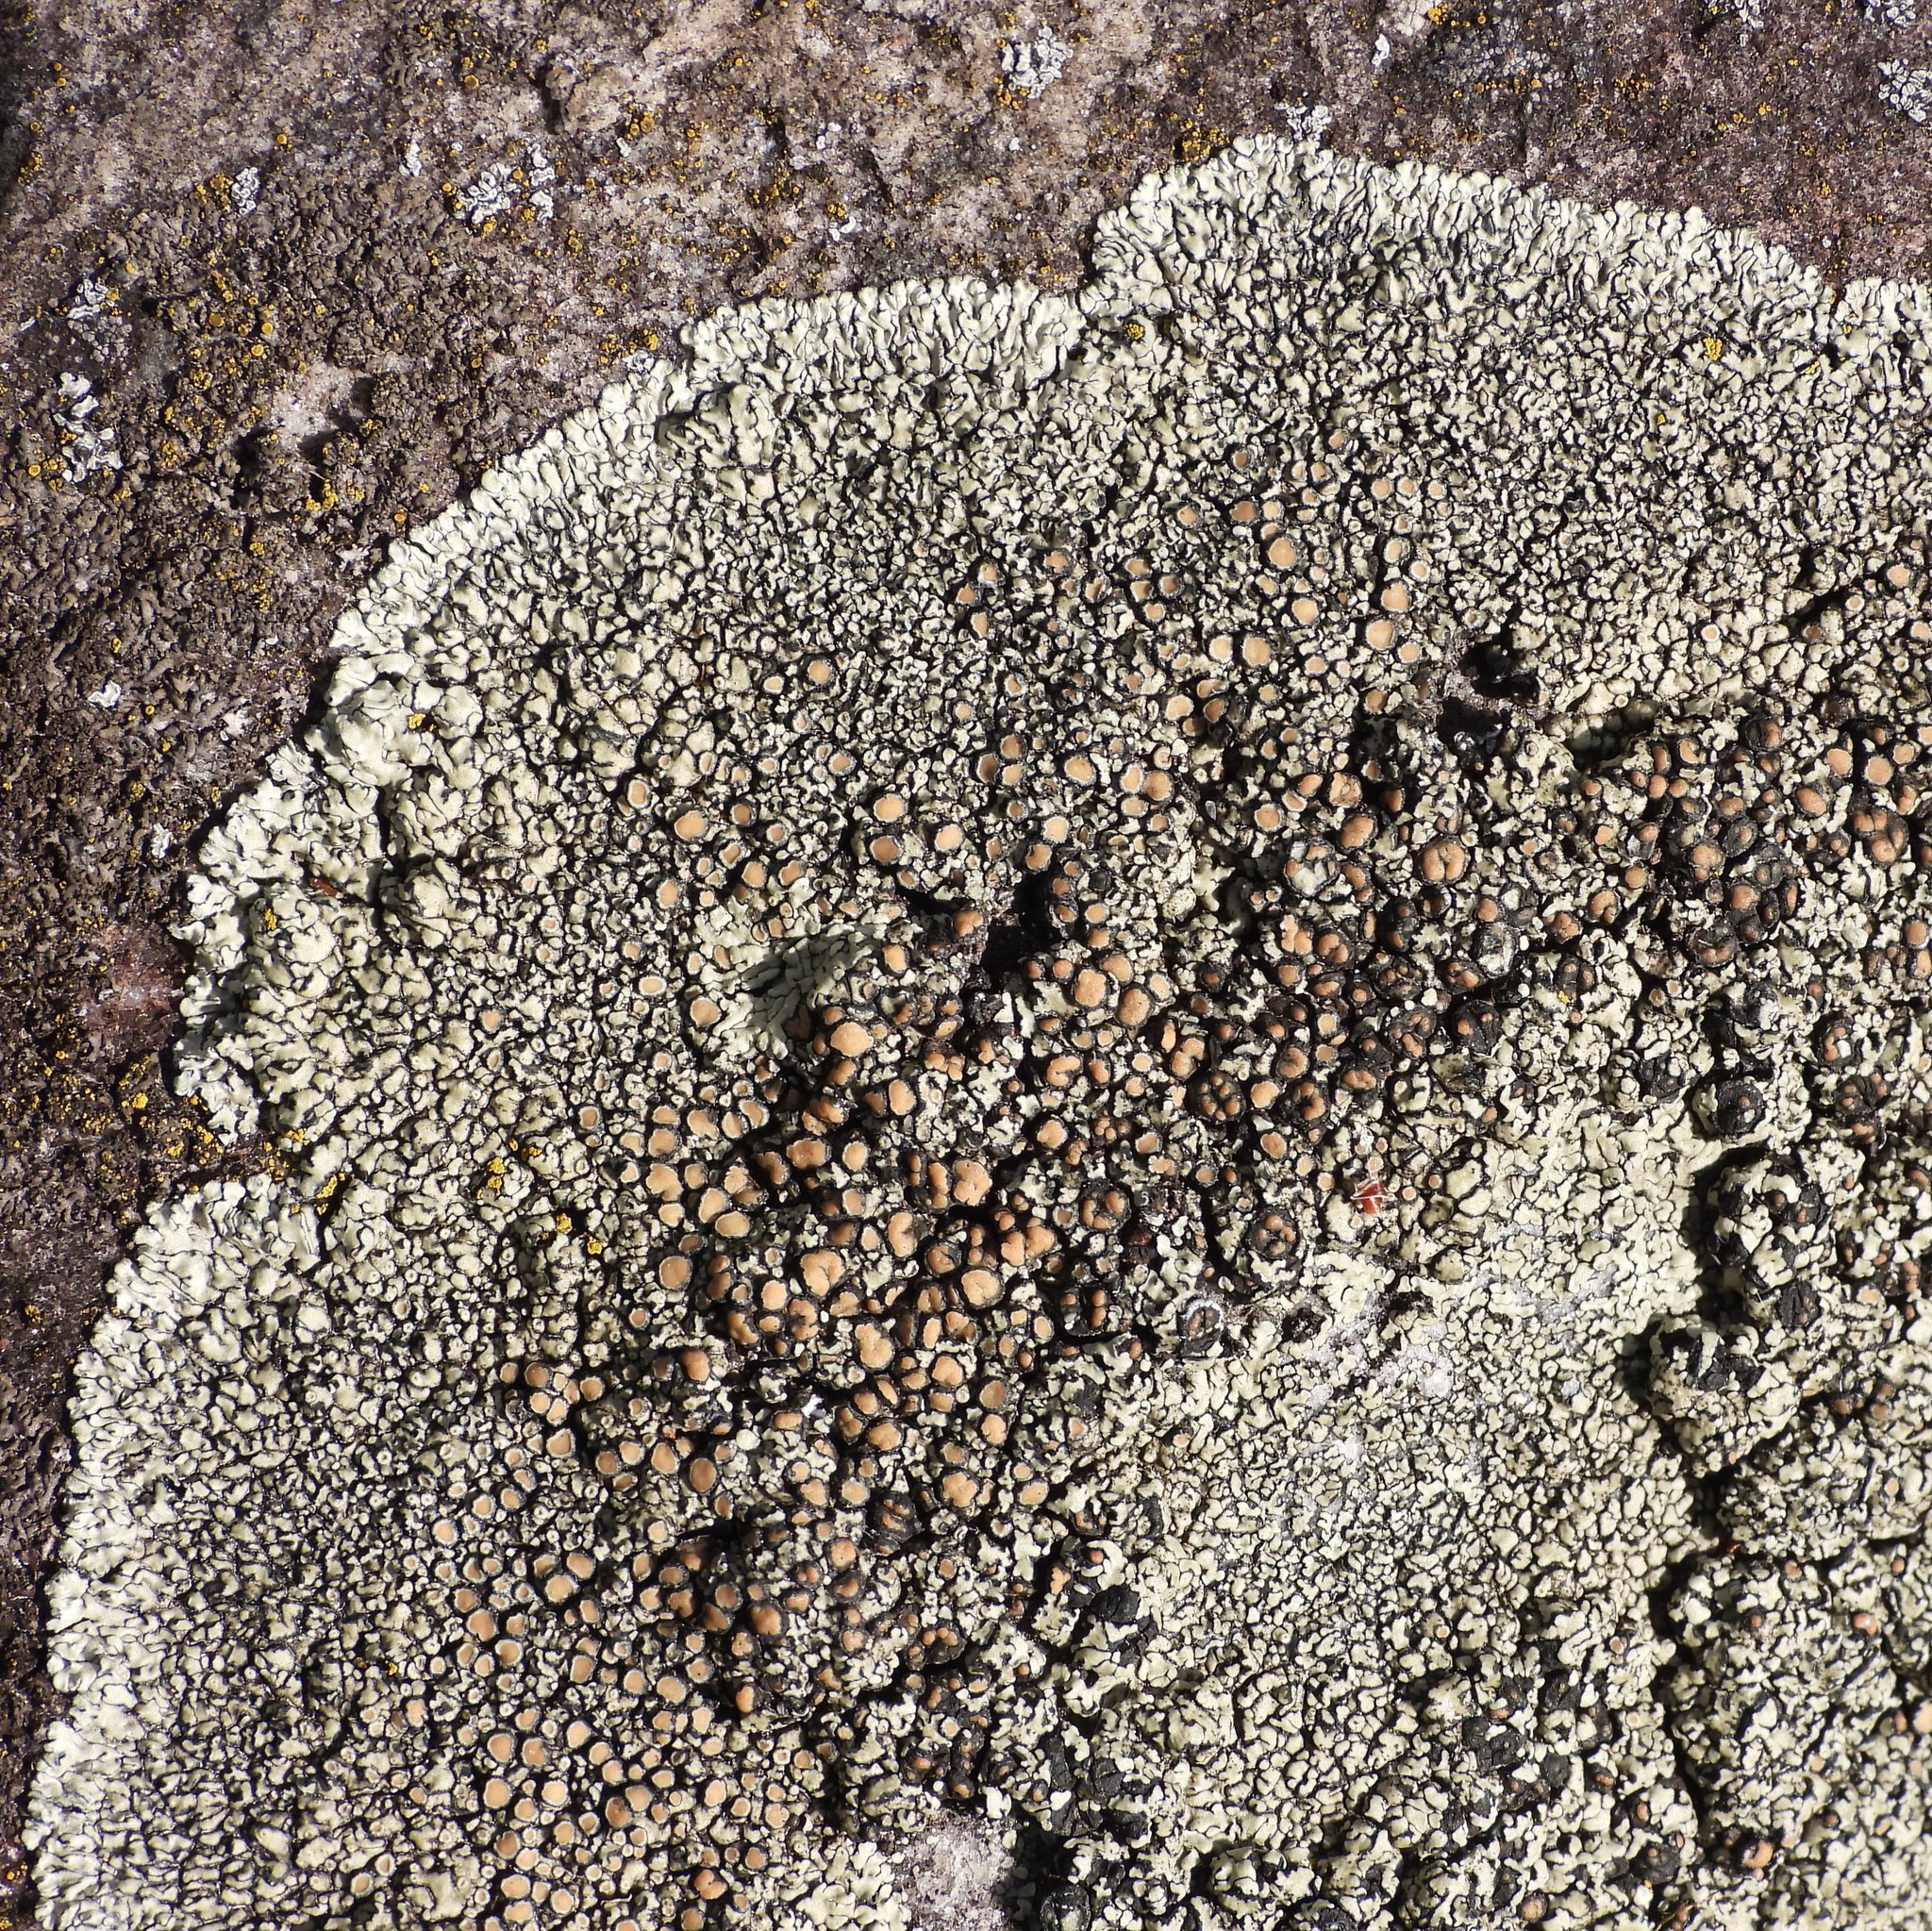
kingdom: Fungi
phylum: Ascomycota
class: Lecanoromycetes
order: Lecanorales
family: Lecanoraceae
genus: Protoparmeliopsis
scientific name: Protoparmeliopsis muralis
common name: Stonewall rim lichen
